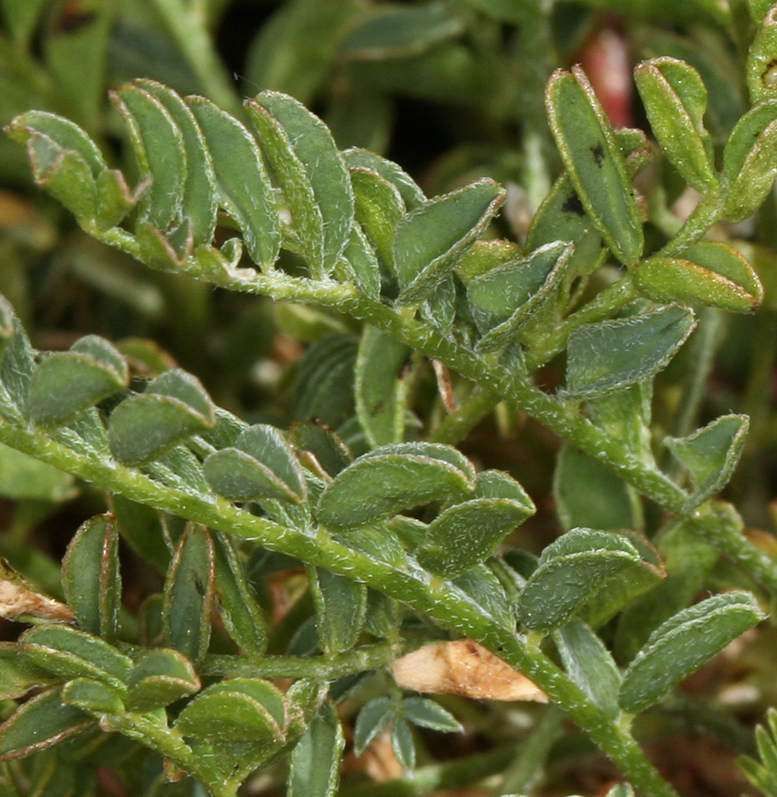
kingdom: Plantae
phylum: Tracheophyta
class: Magnoliopsida
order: Fabales
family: Fabaceae
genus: Astragalus
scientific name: Astragalus lentiginosus
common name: Freckled milkvetch
